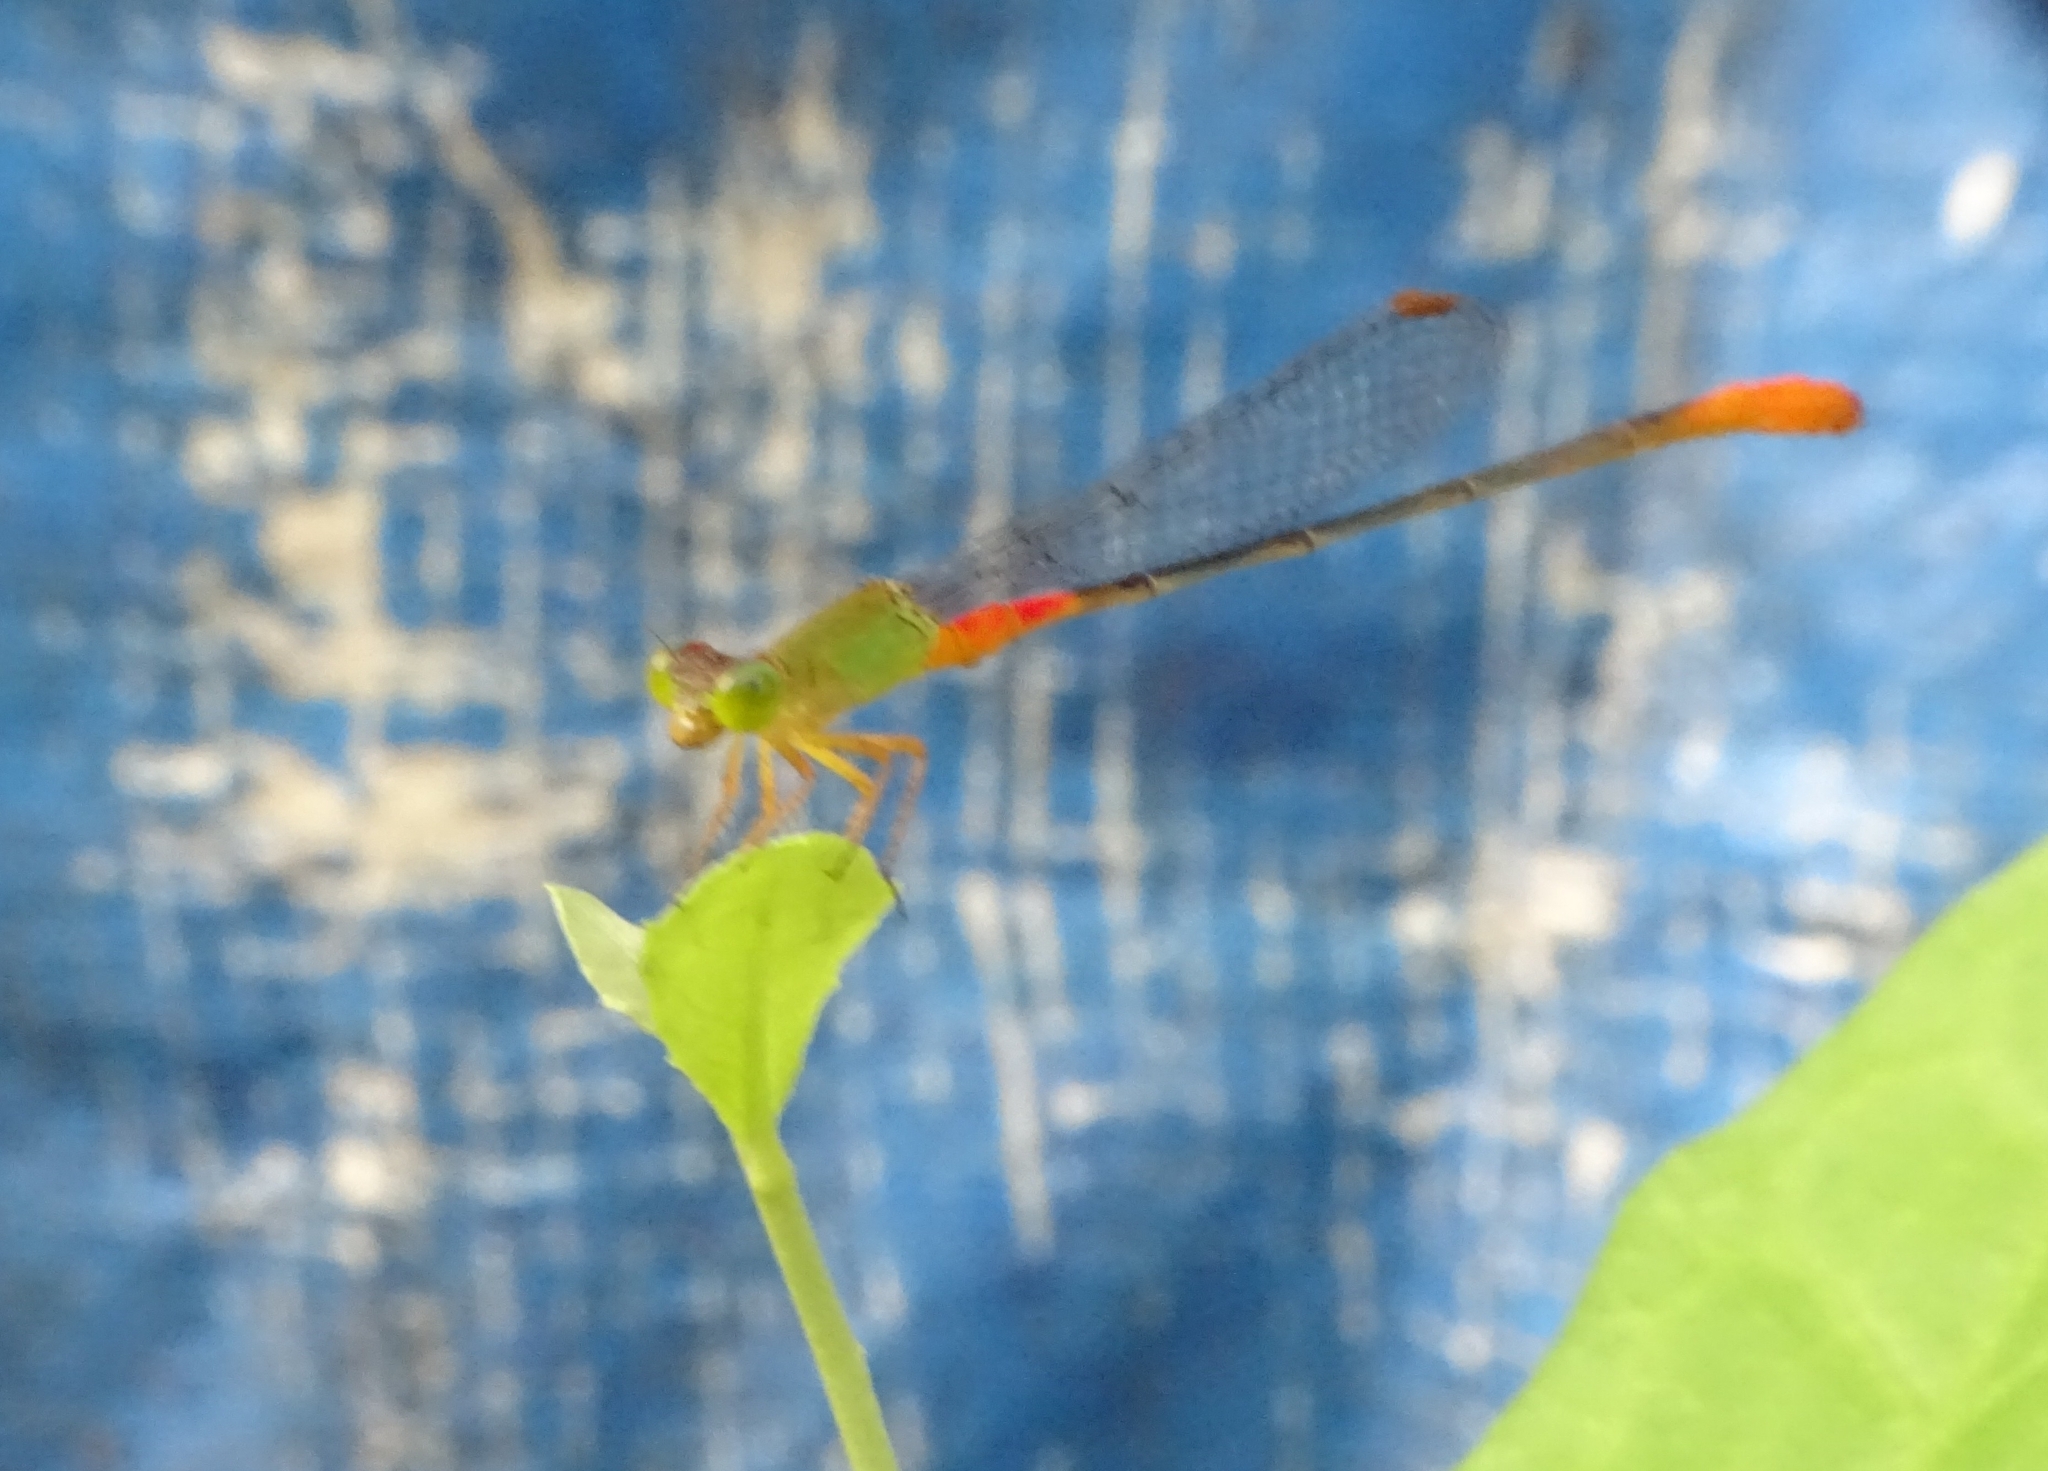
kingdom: Animalia
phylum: Arthropoda
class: Insecta
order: Odonata
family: Coenagrionidae
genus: Ceriagrion
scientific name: Ceriagrion cerinorubellum
